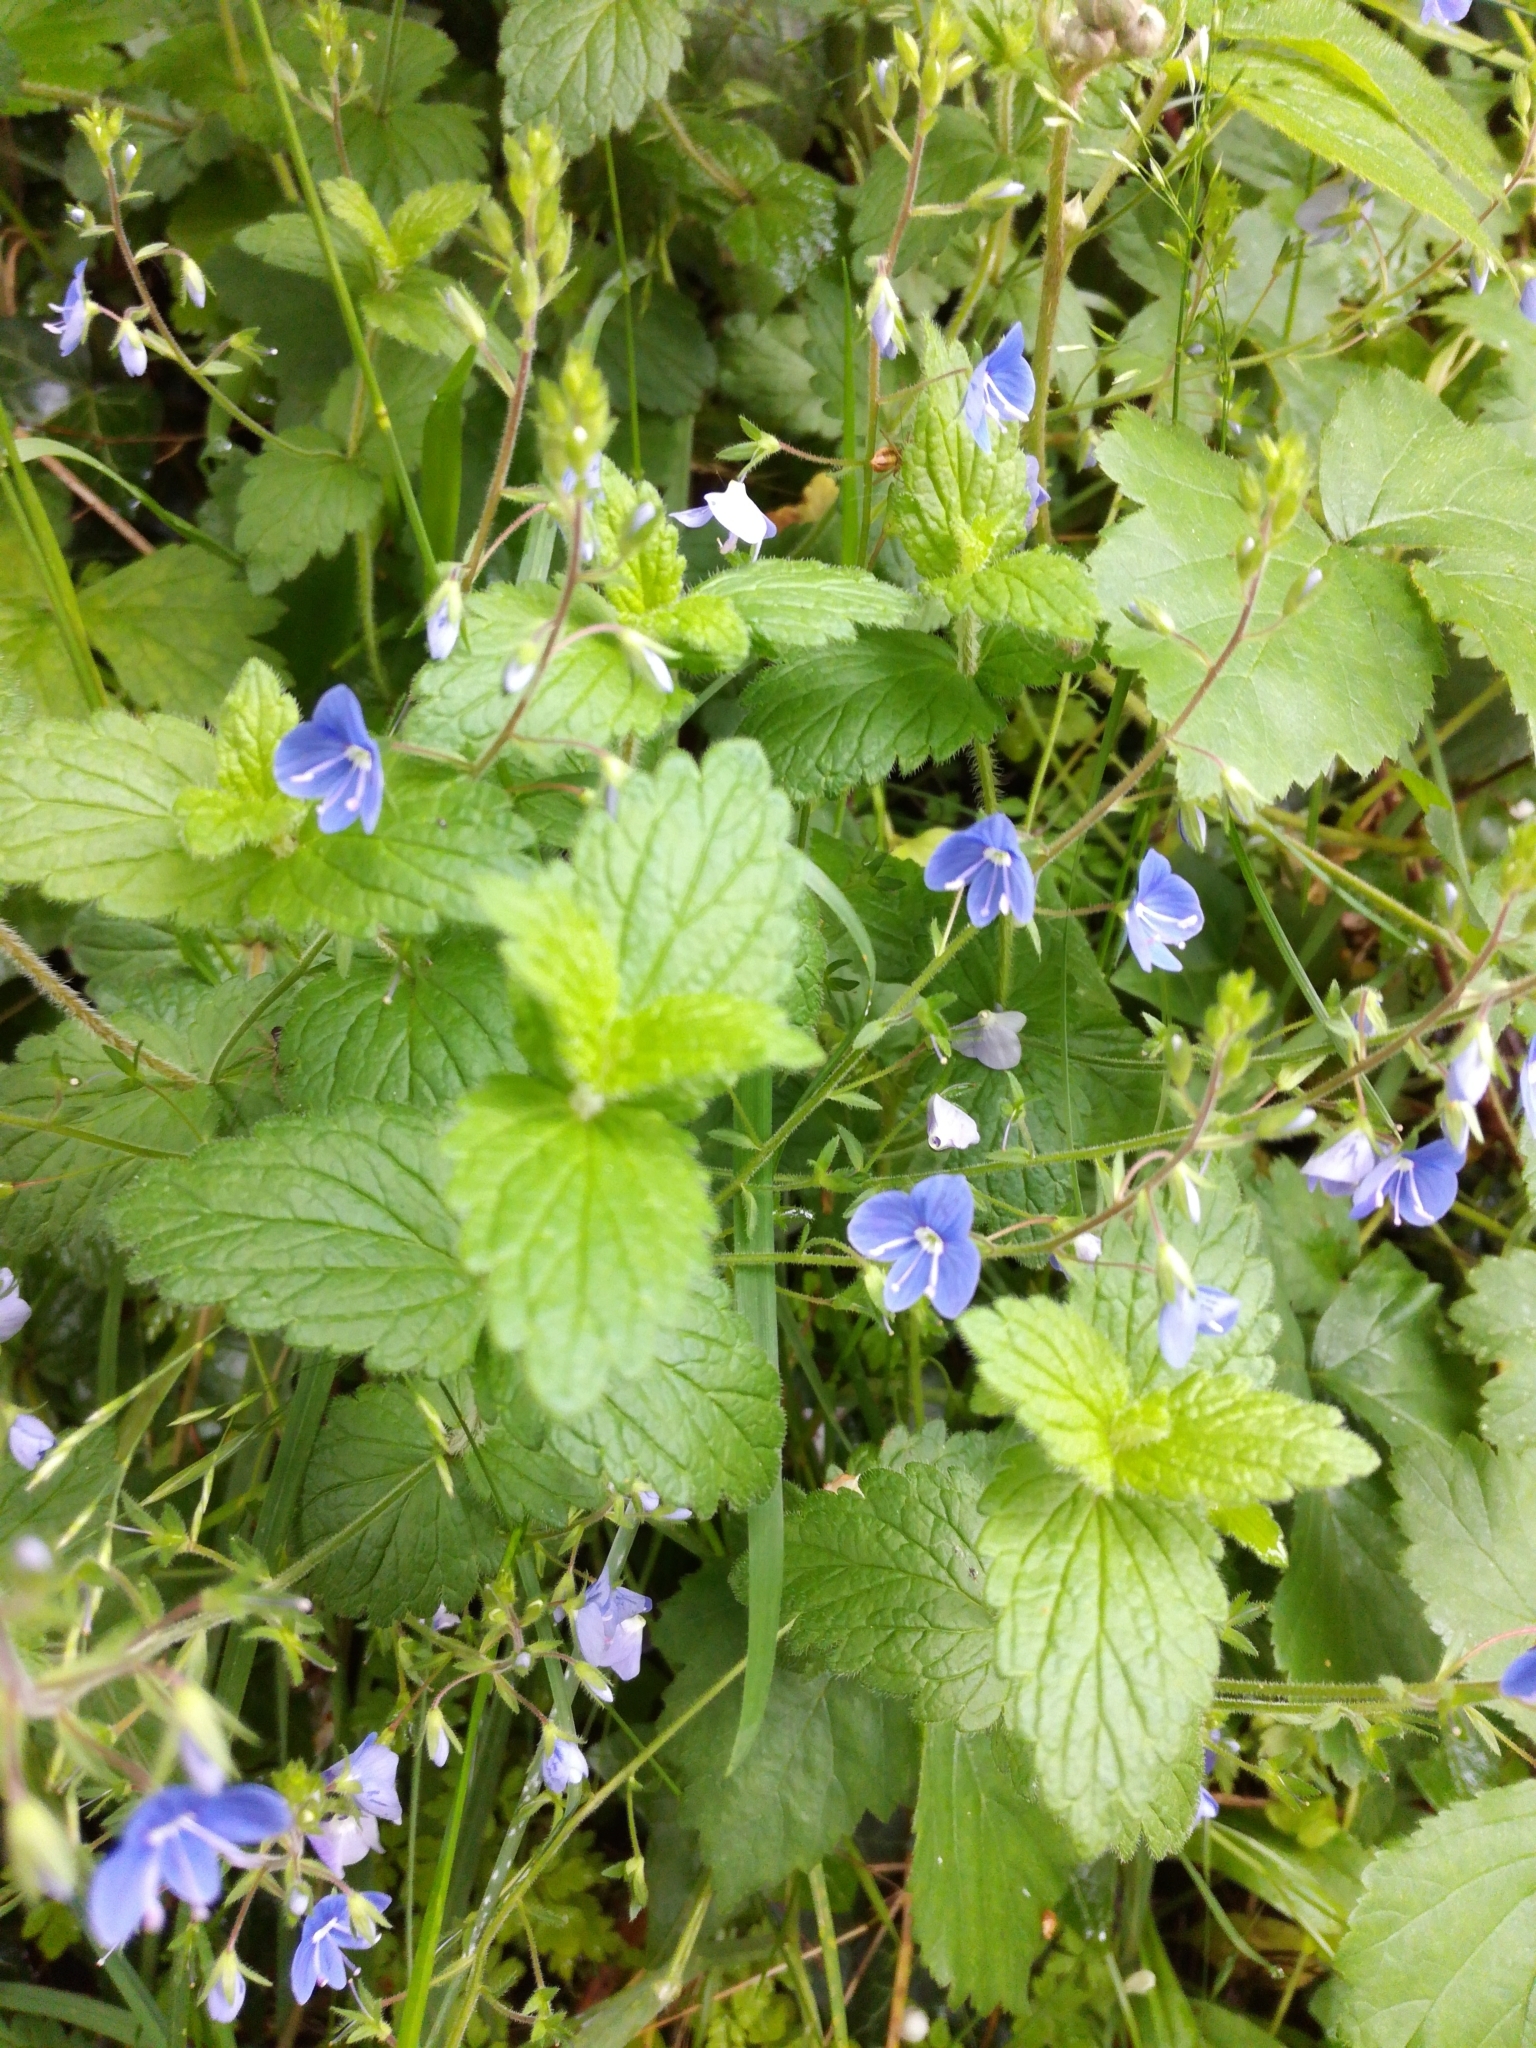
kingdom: Plantae
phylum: Tracheophyta
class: Magnoliopsida
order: Lamiales
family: Plantaginaceae
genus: Veronica
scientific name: Veronica chamaedrys
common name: Germander speedwell
